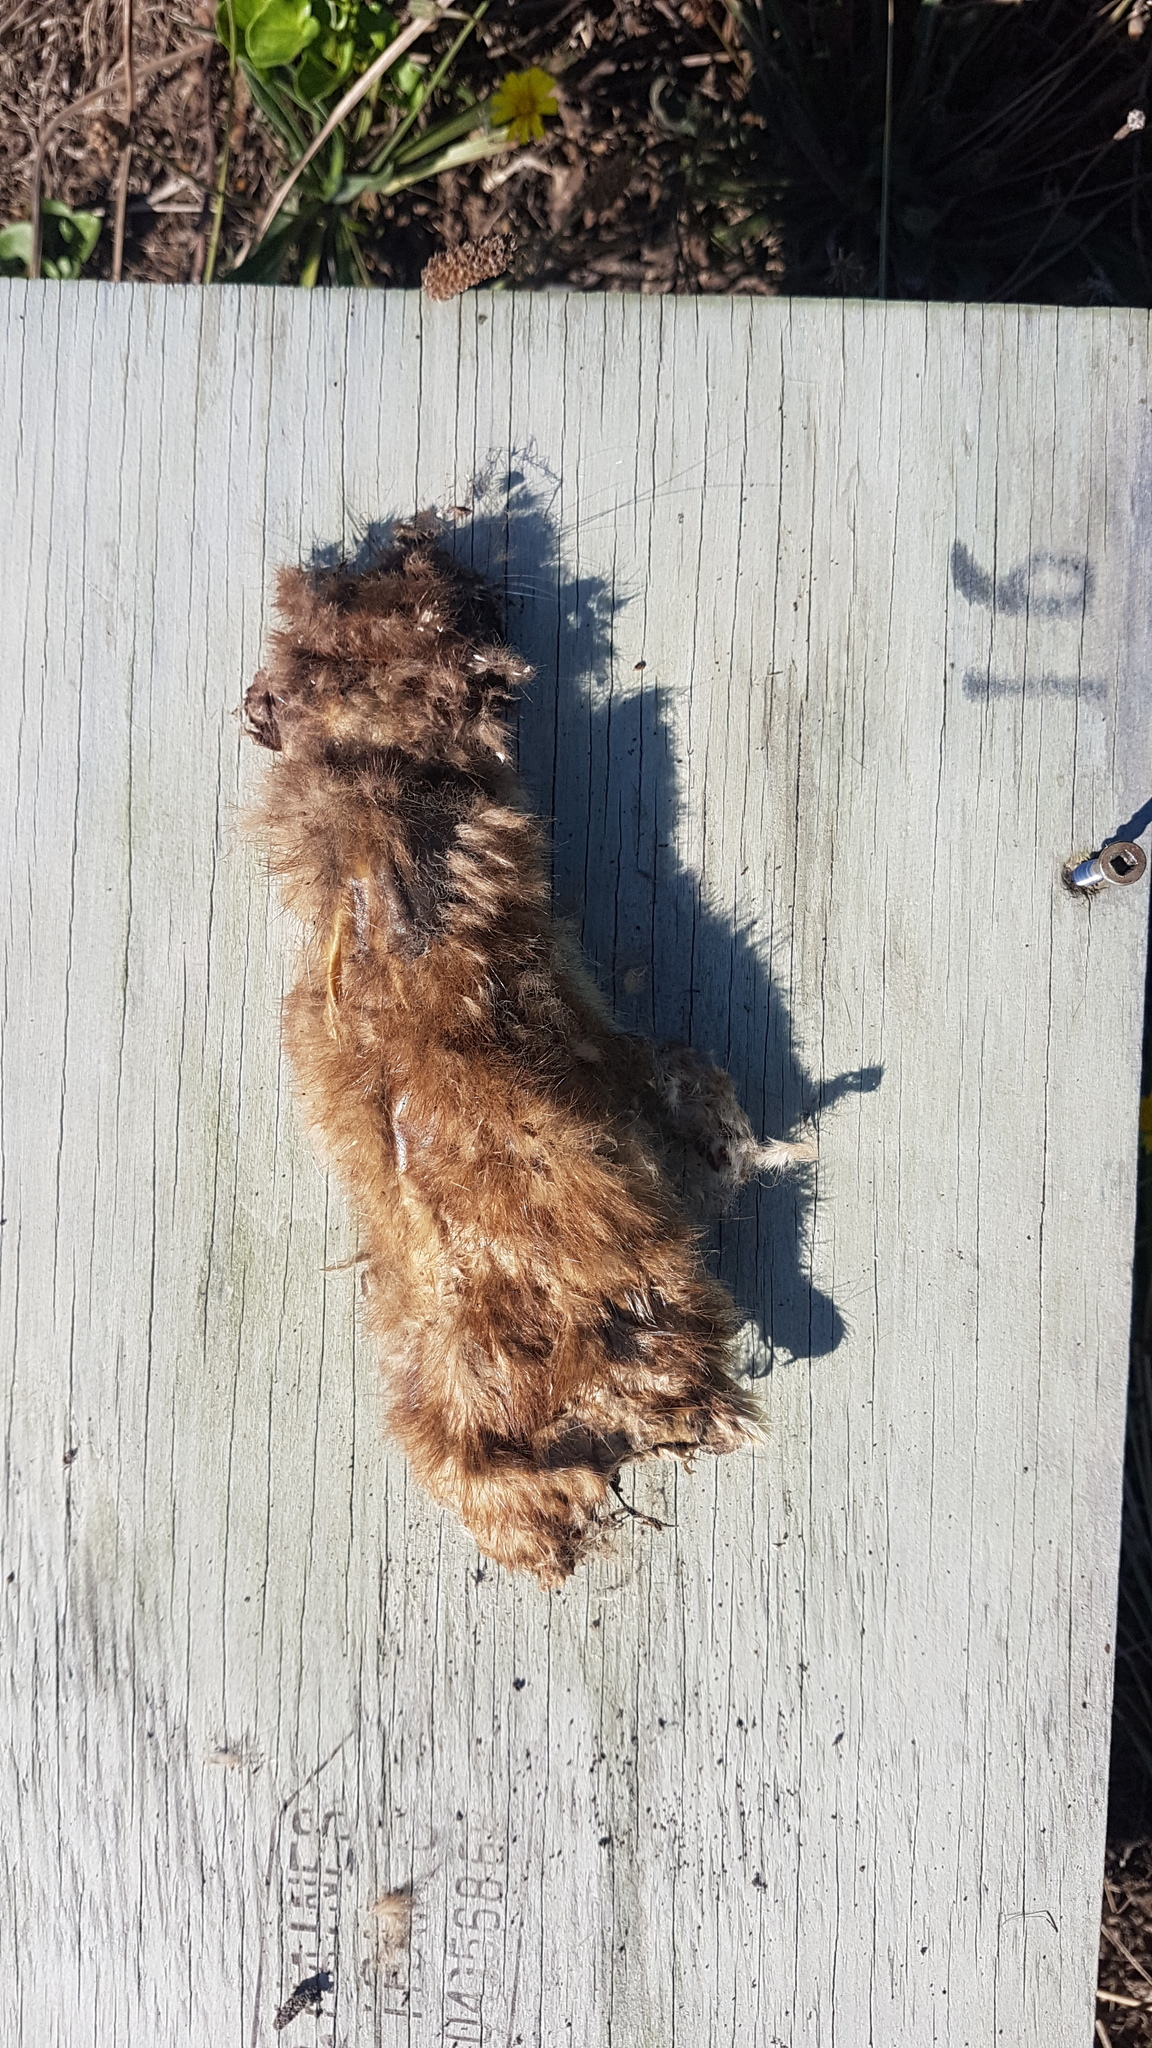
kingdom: Animalia
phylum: Chordata
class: Mammalia
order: Carnivora
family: Mustelidae
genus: Mustela
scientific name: Mustela erminea
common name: Stoat
